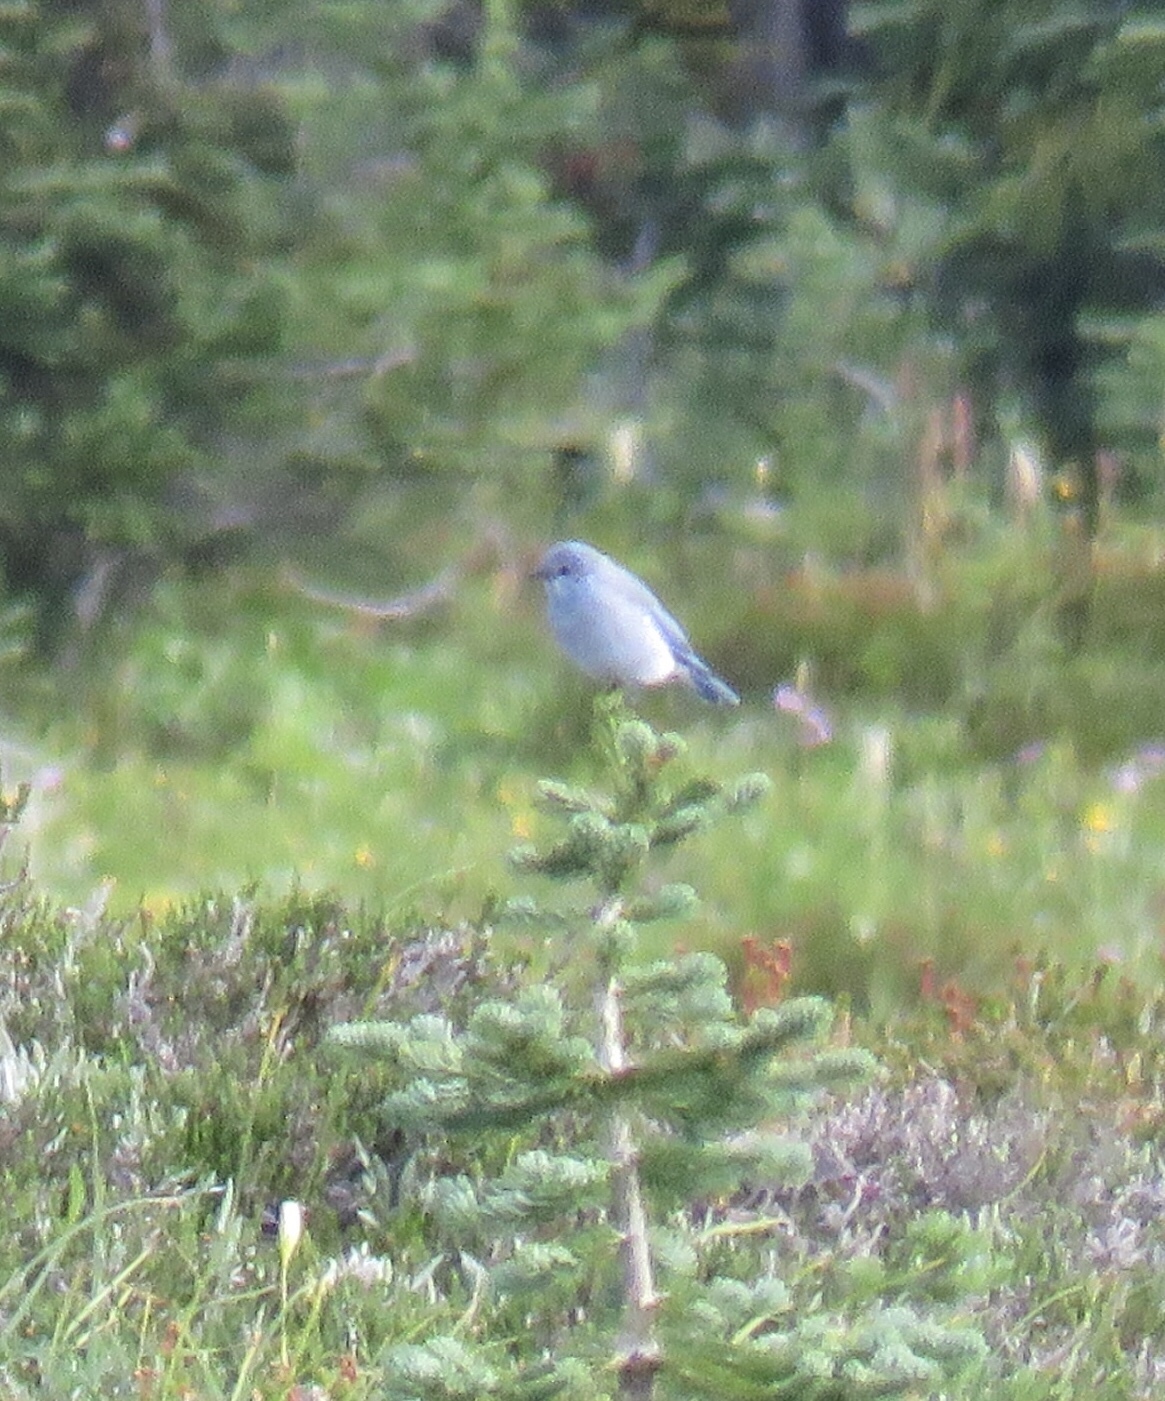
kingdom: Animalia
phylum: Chordata
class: Aves
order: Passeriformes
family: Turdidae
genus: Sialia
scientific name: Sialia currucoides
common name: Mountain bluebird
